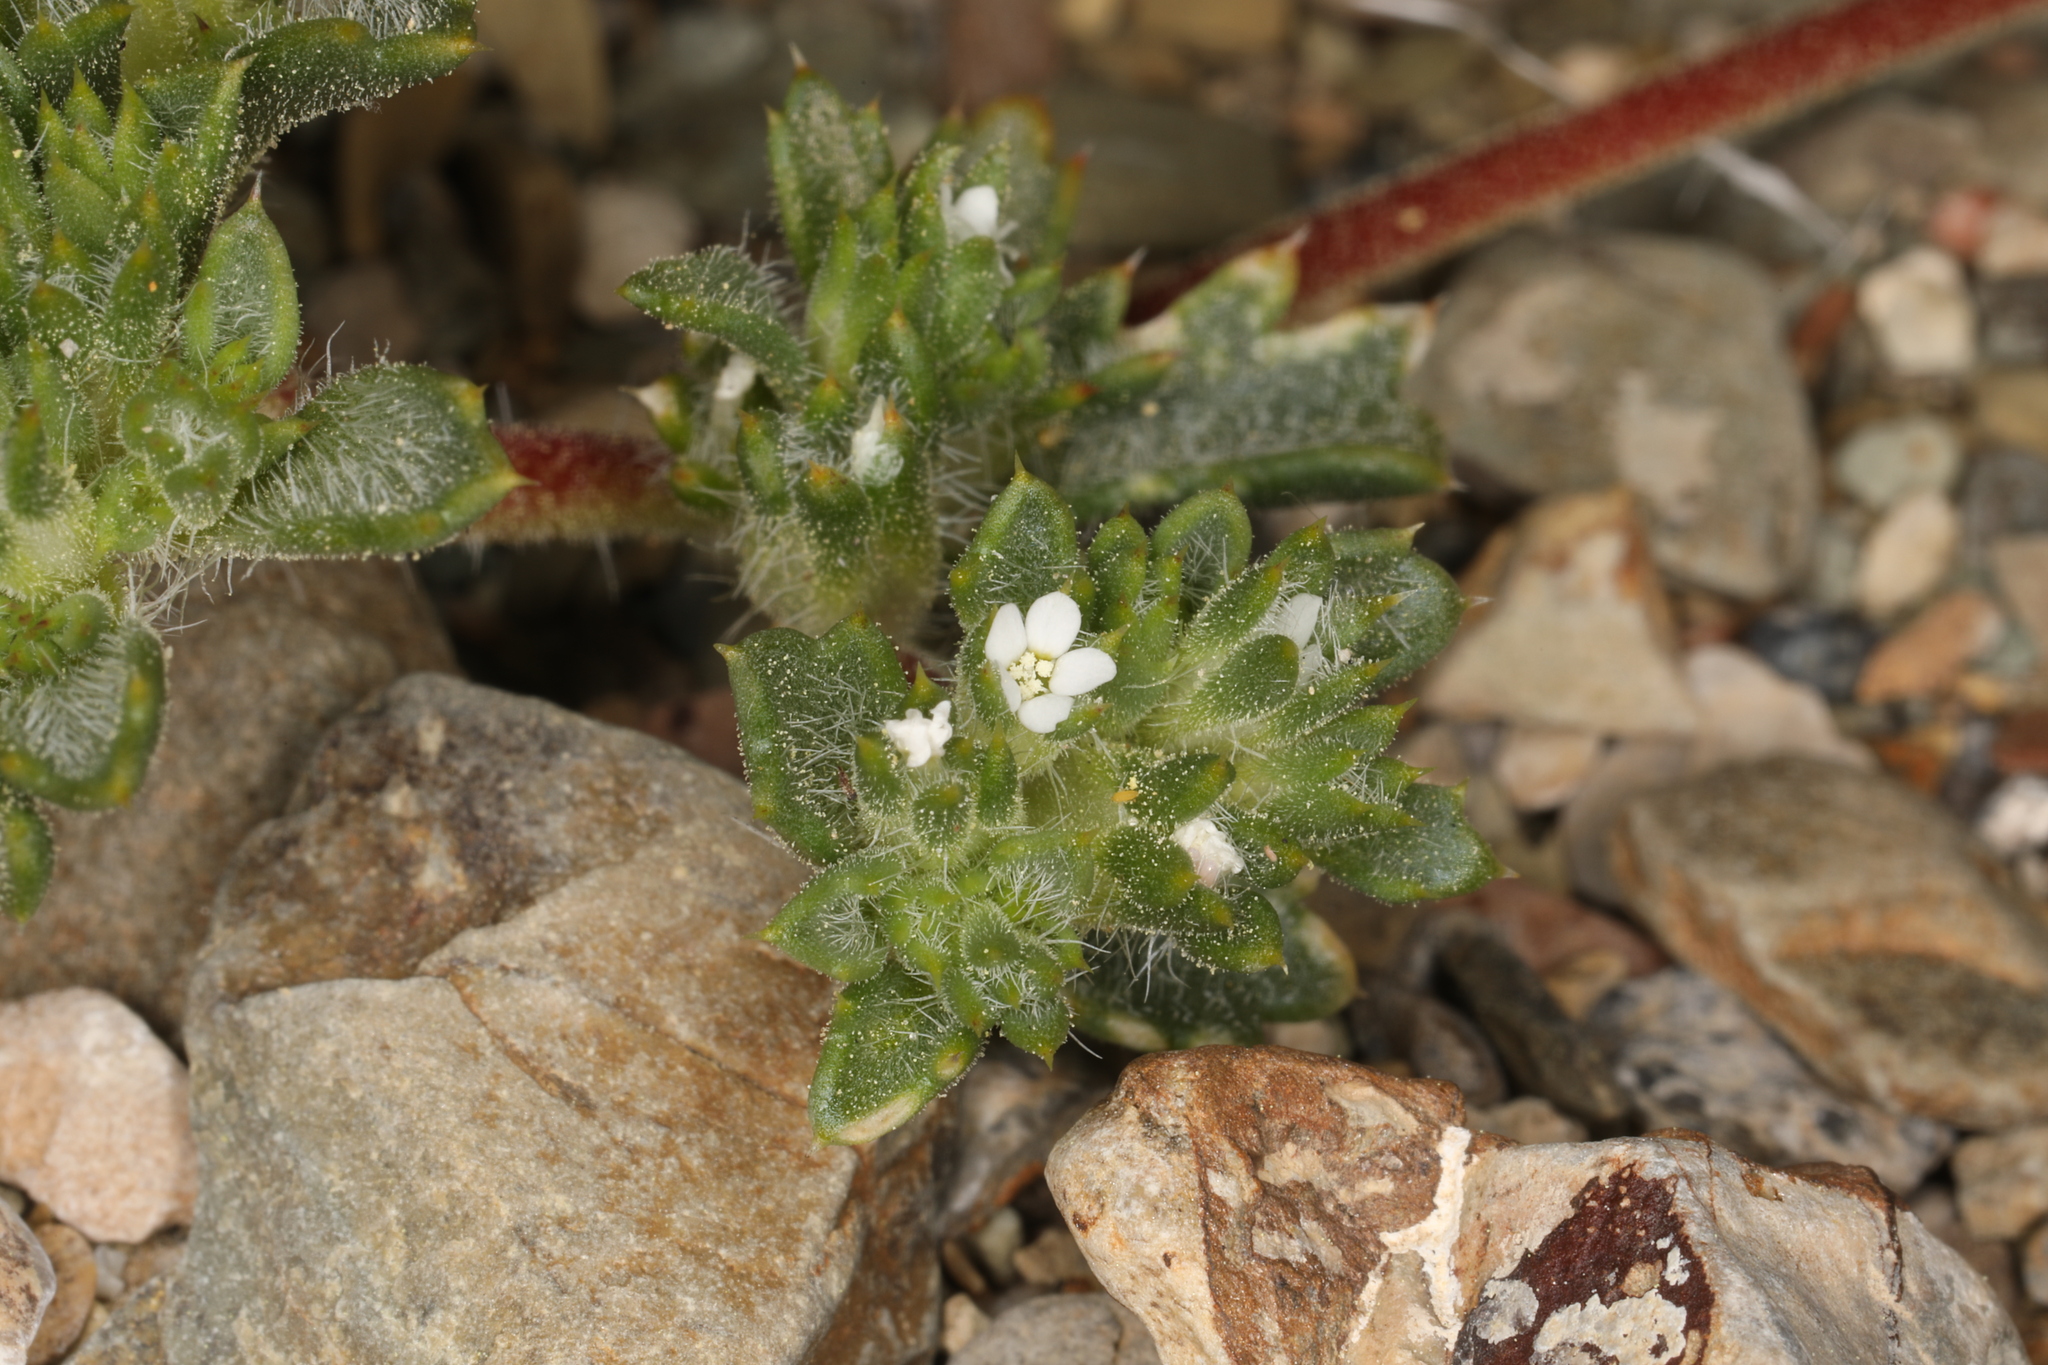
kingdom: Plantae
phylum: Tracheophyta
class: Magnoliopsida
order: Ericales
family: Polemoniaceae
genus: Ipomopsis
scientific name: Ipomopsis polycladon
